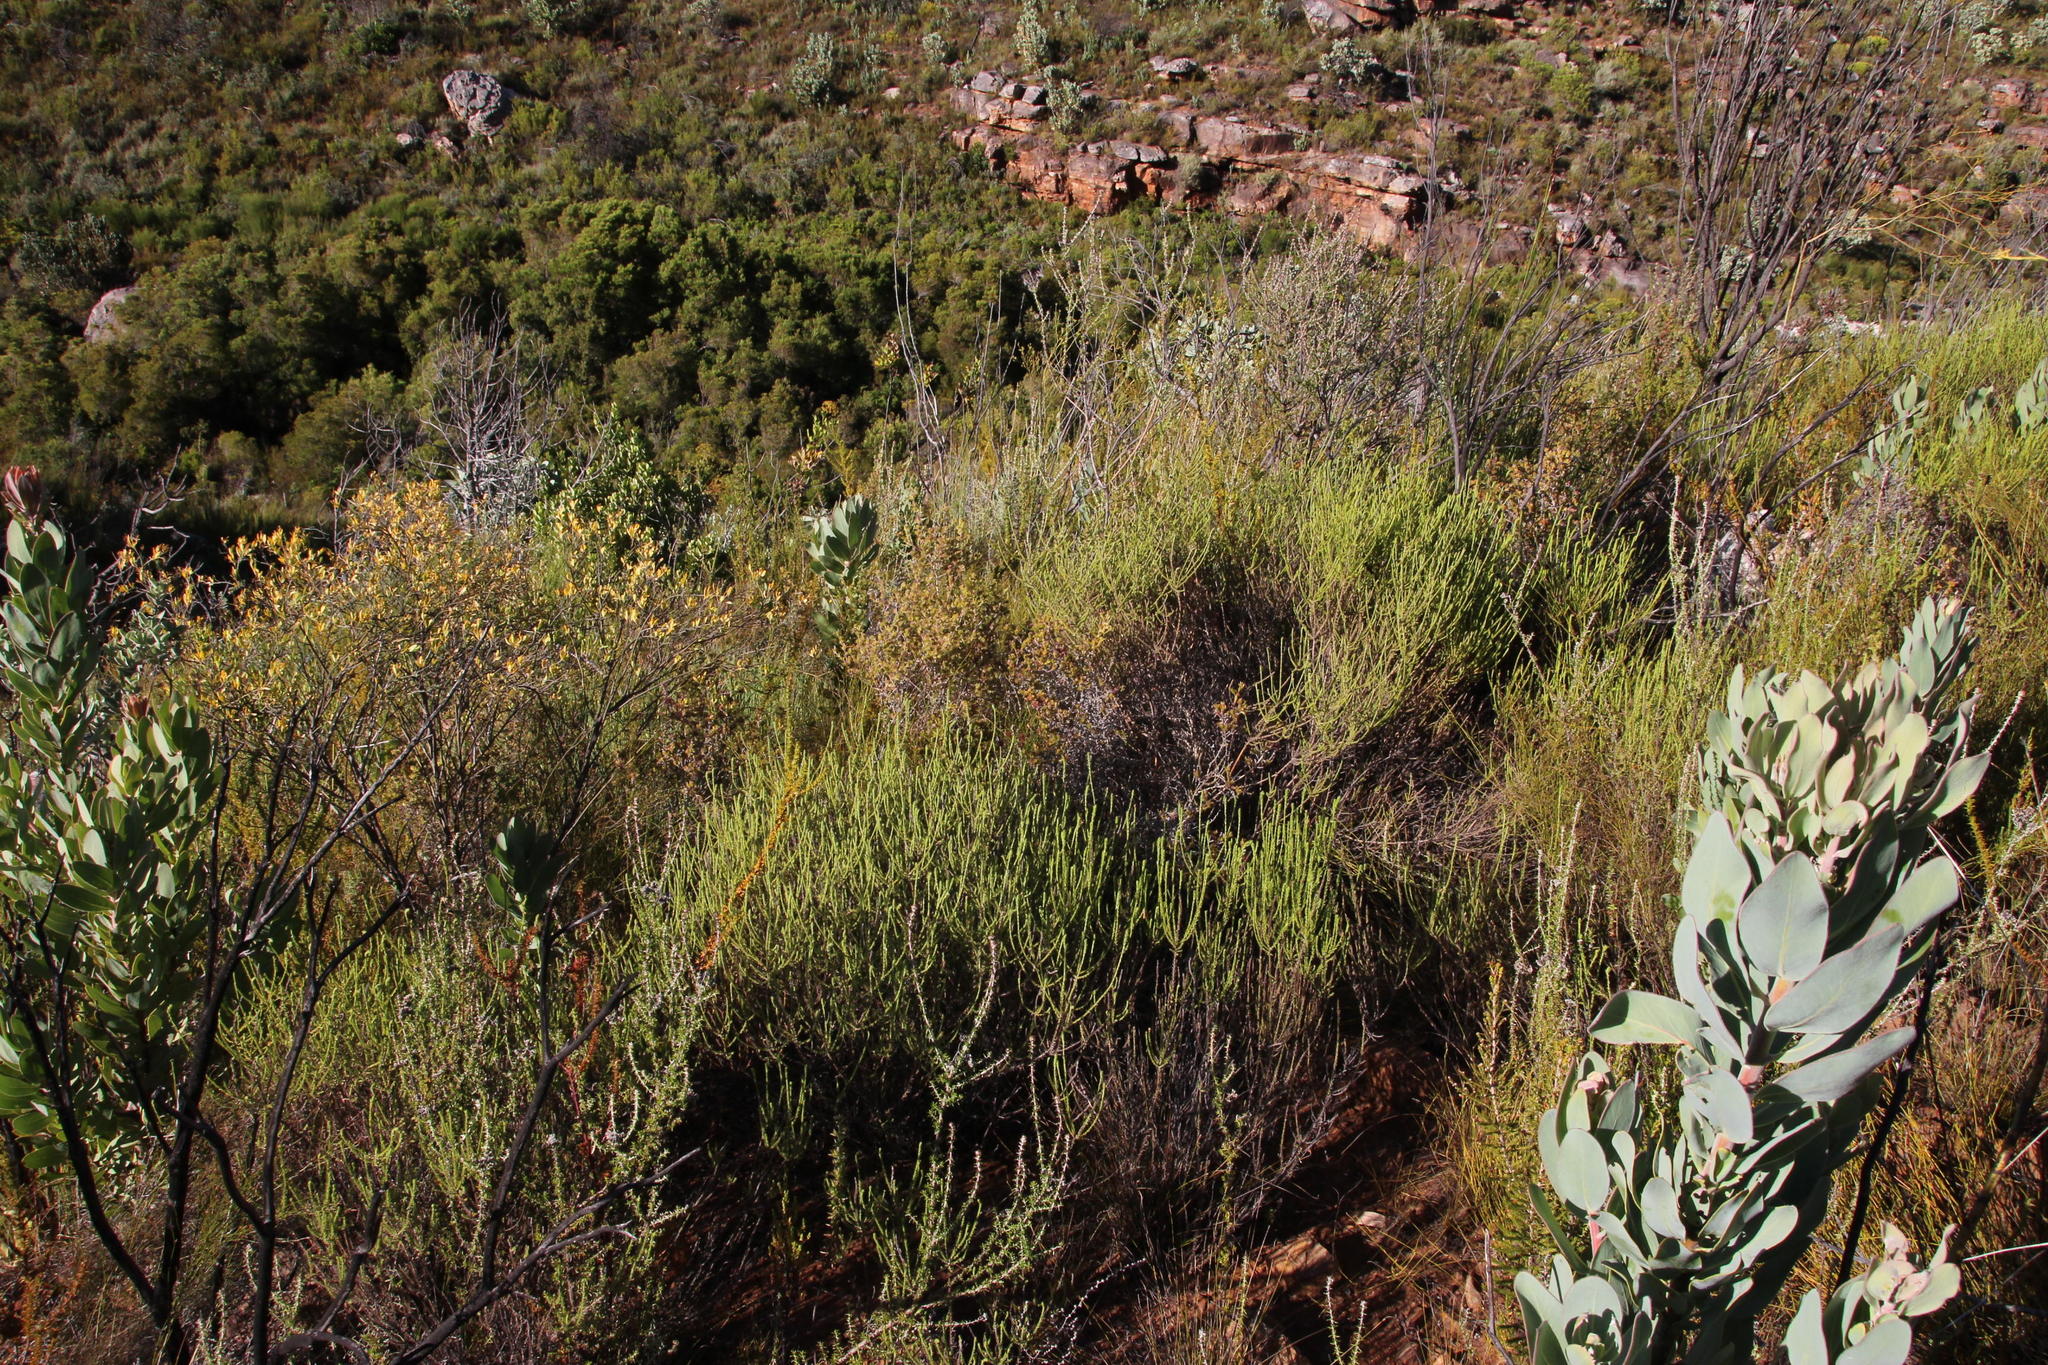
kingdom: Plantae
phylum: Tracheophyta
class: Magnoliopsida
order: Asterales
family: Asteraceae
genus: Myrovernix
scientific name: Myrovernix gnaphaloides
